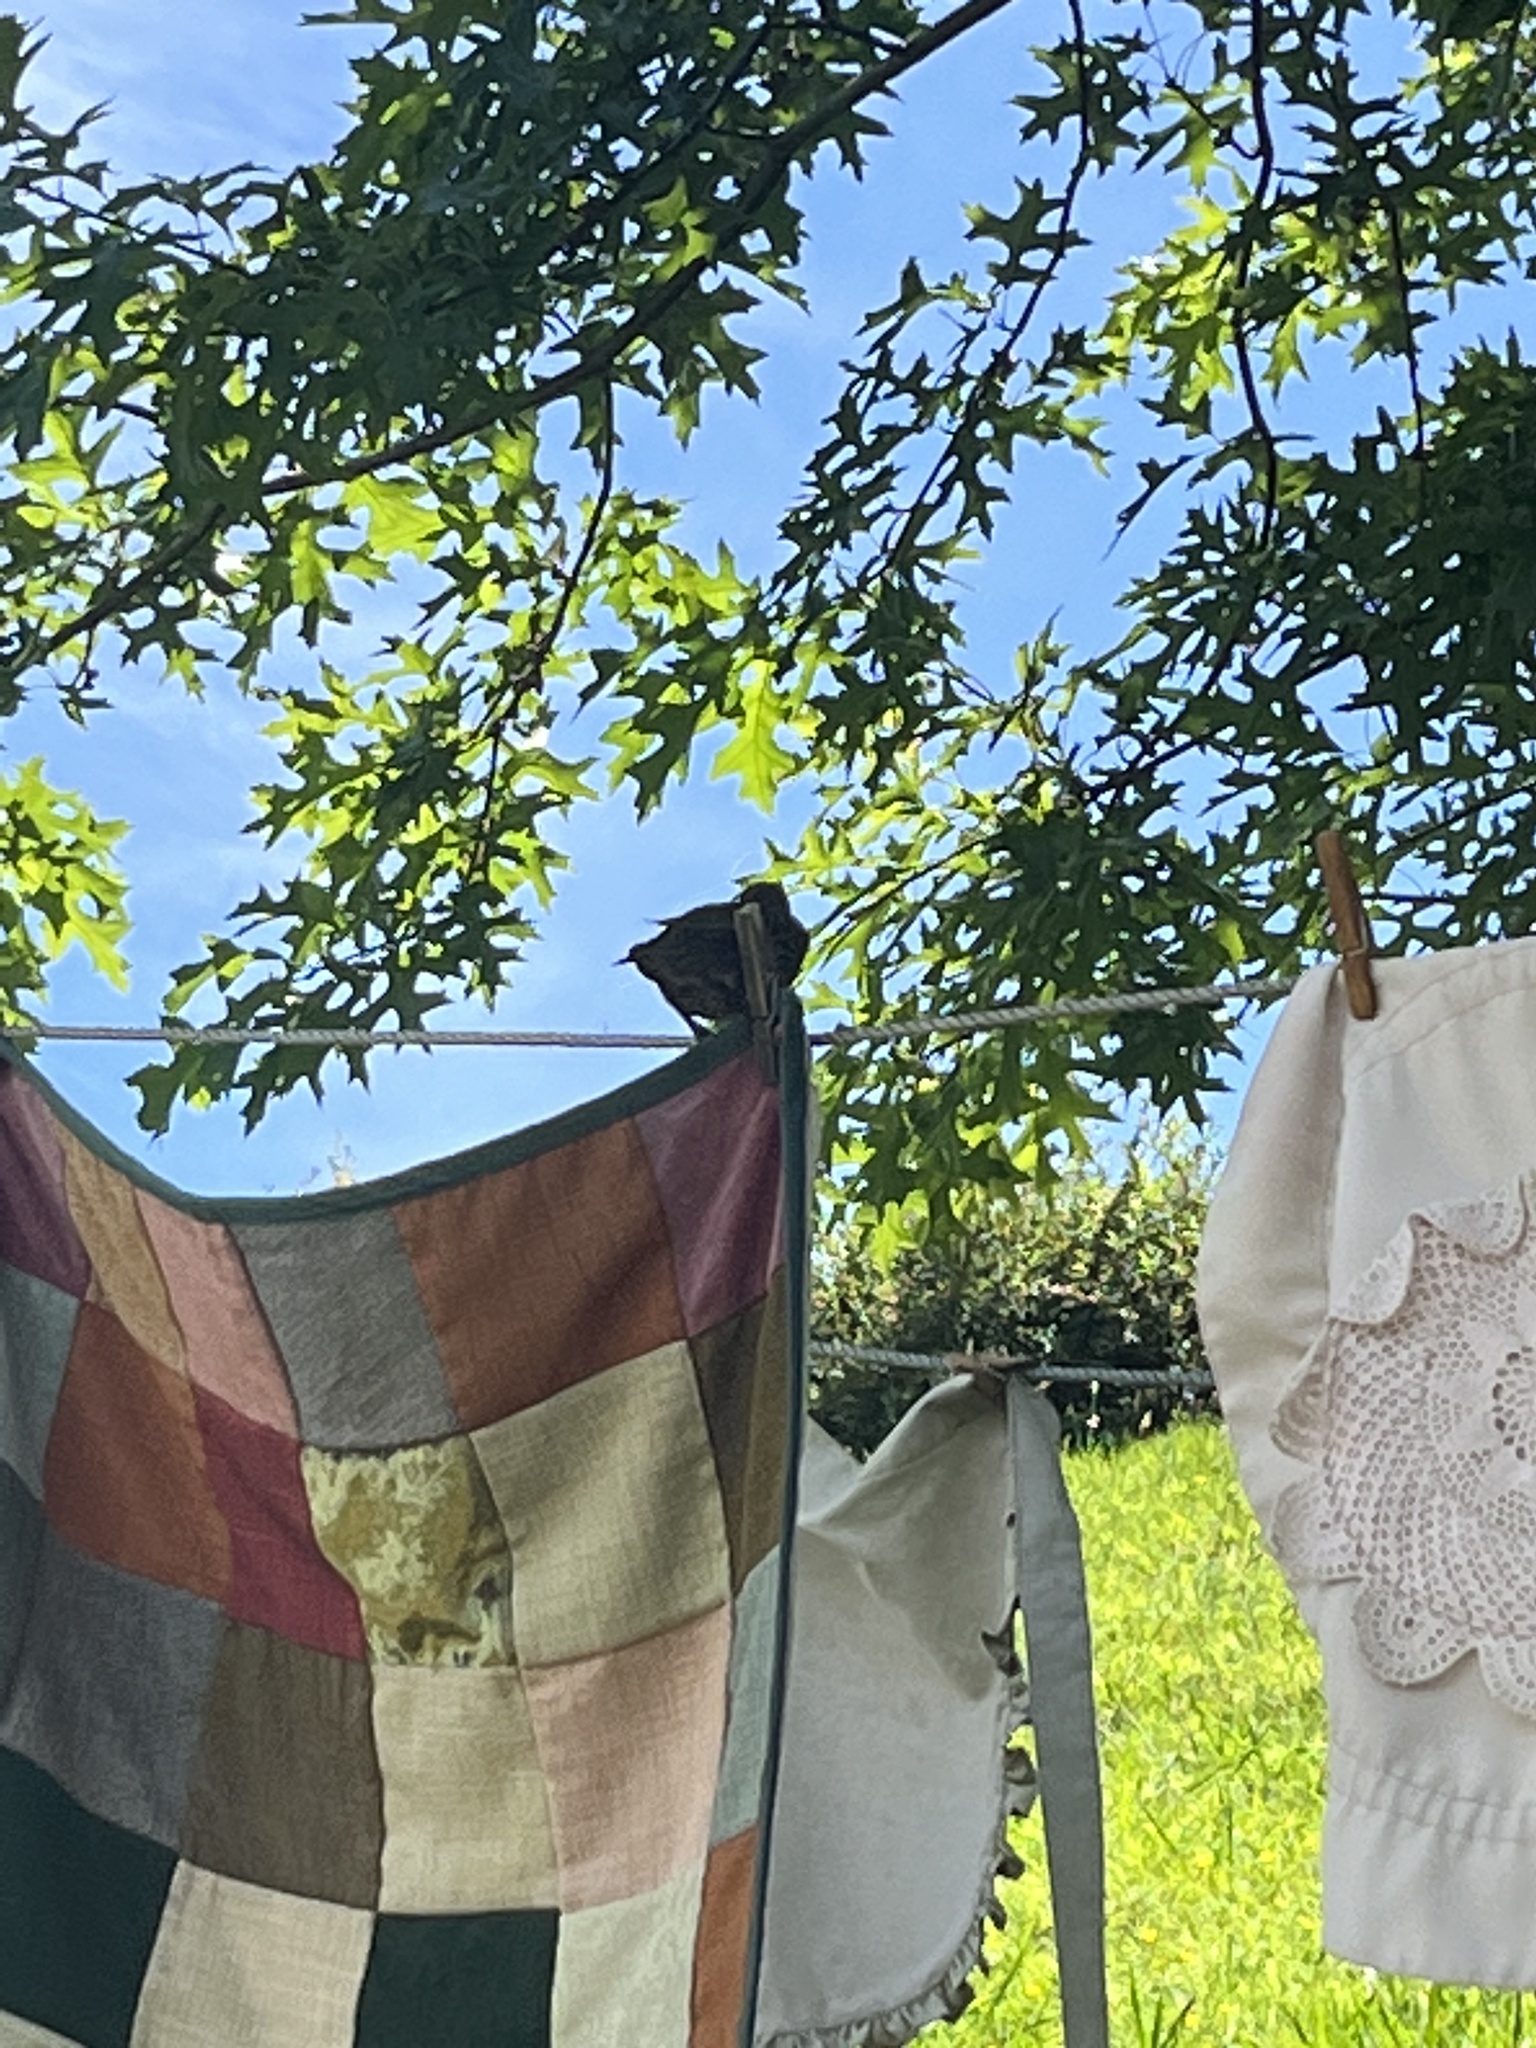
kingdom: Animalia
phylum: Chordata
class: Aves
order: Passeriformes
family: Sturnidae
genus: Sturnus
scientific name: Sturnus vulgaris
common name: Common starling
